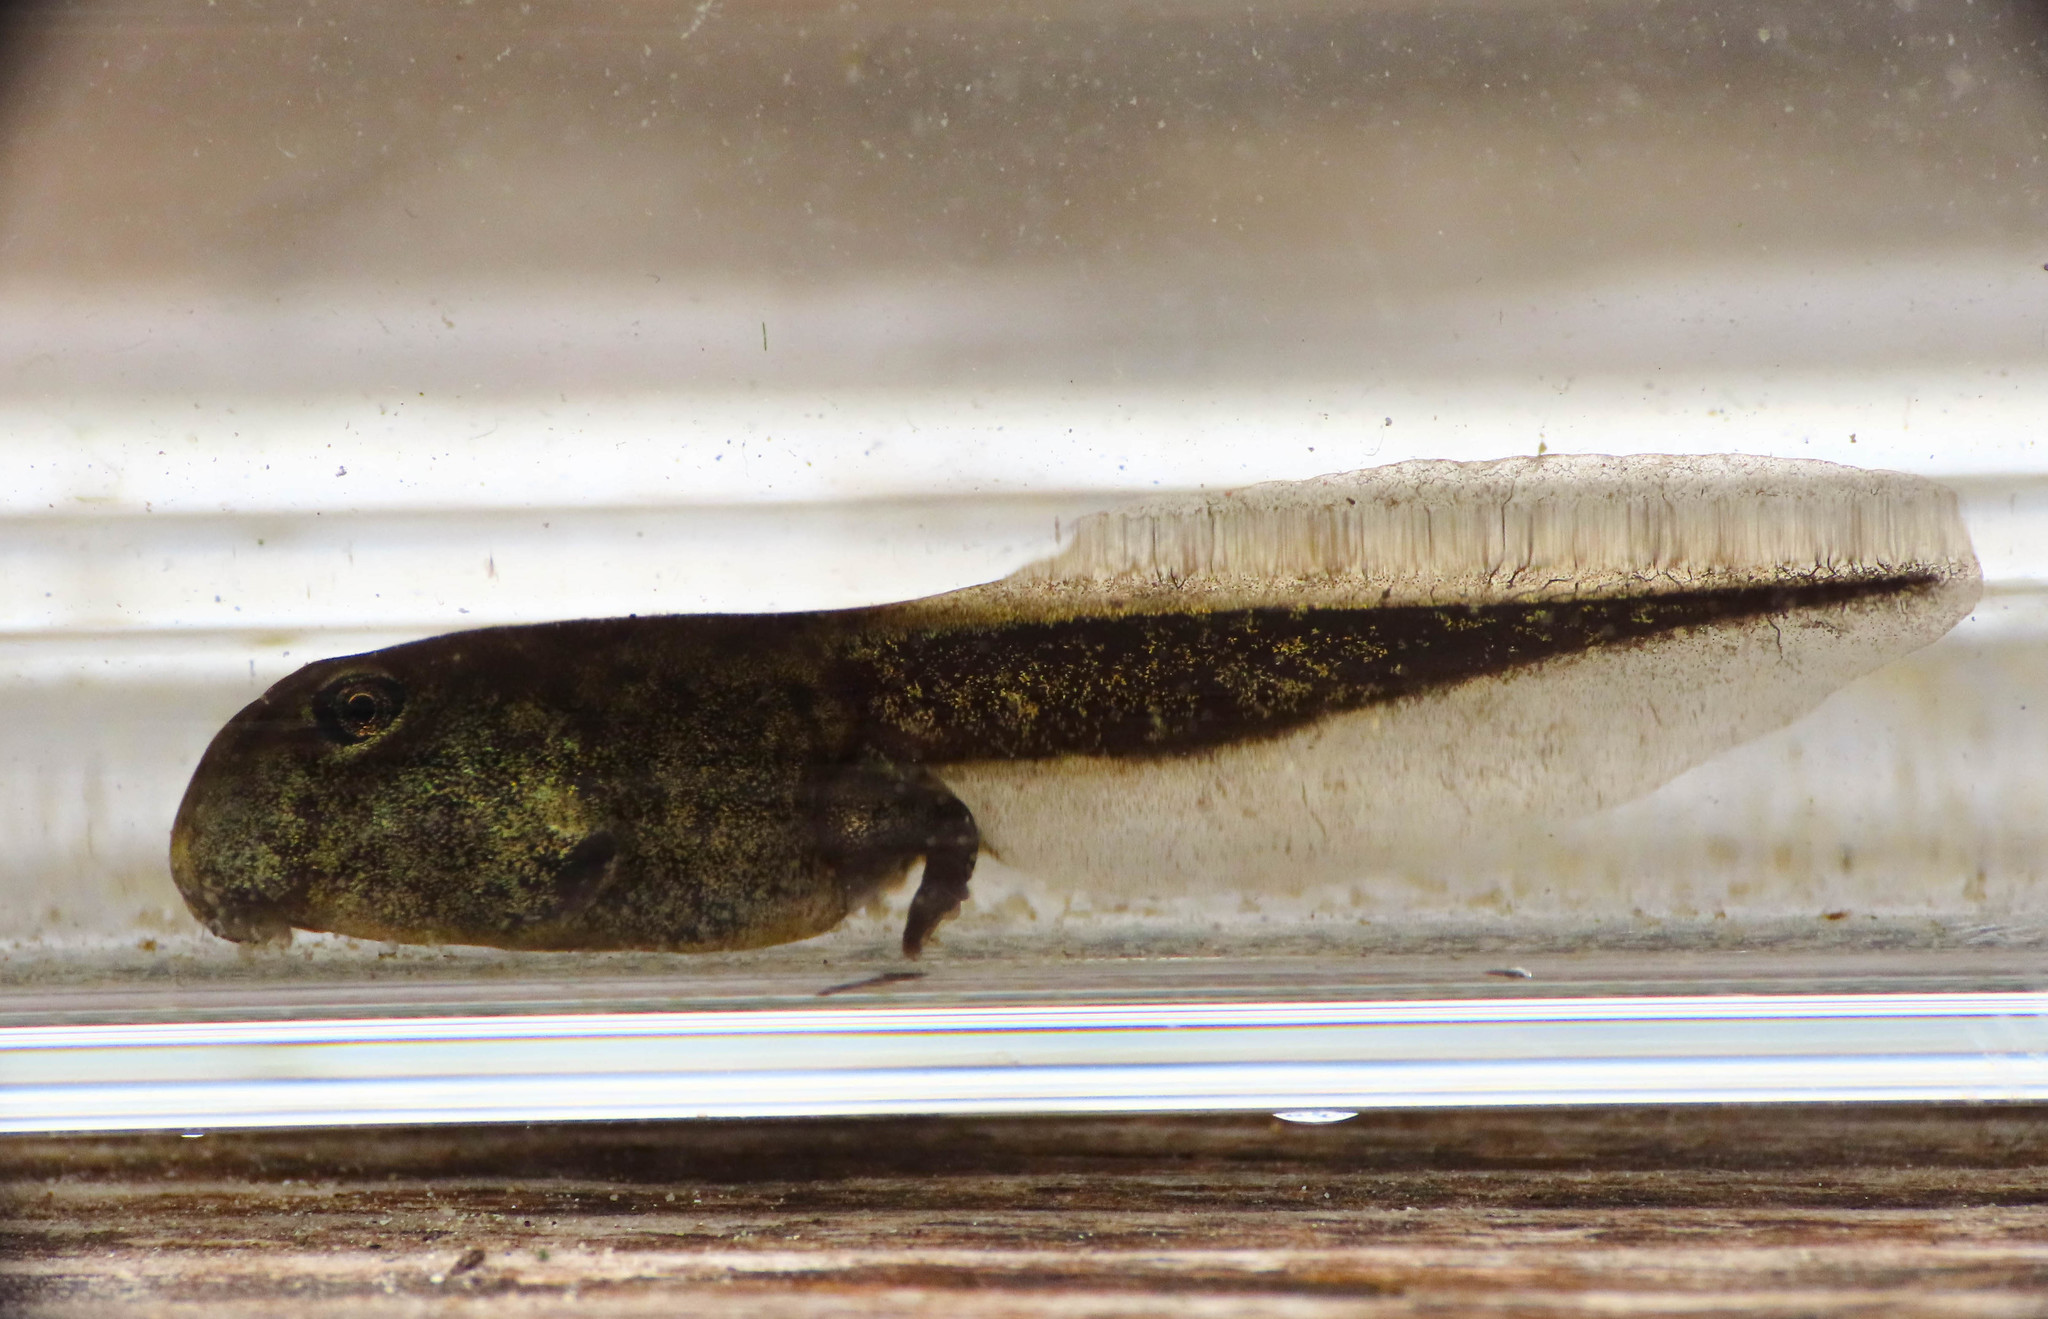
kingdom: Animalia
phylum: Chordata
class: Amphibia
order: Anura
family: Bufonidae
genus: Bufo
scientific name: Bufo bufo
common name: Common toad
